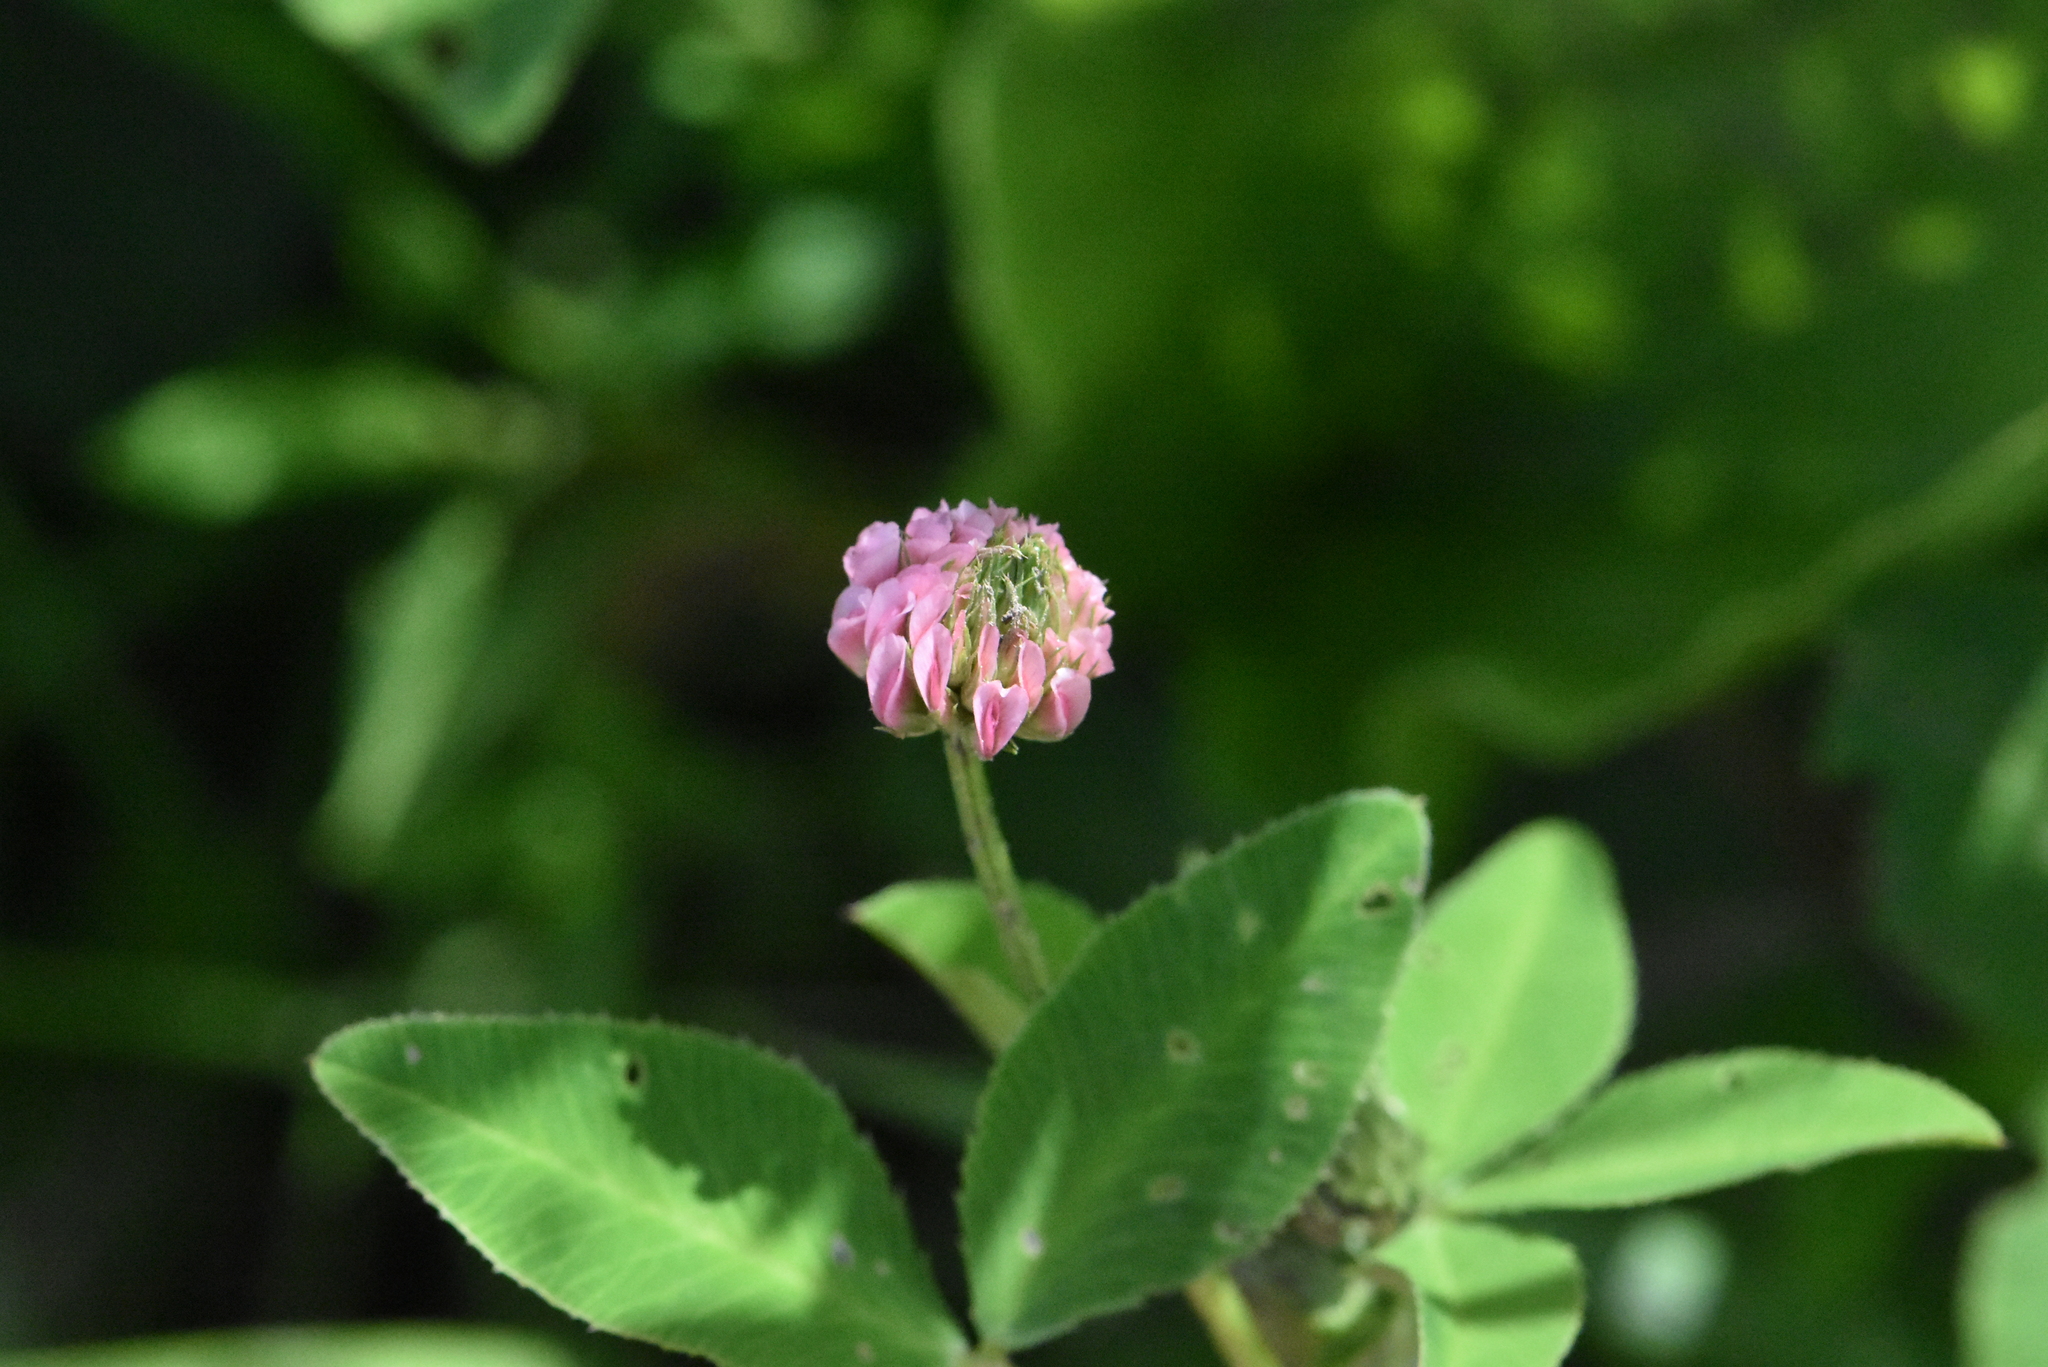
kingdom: Plantae
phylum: Tracheophyta
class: Magnoliopsida
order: Fabales
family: Fabaceae
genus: Trifolium
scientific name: Trifolium hybridum
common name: Alsike clover
